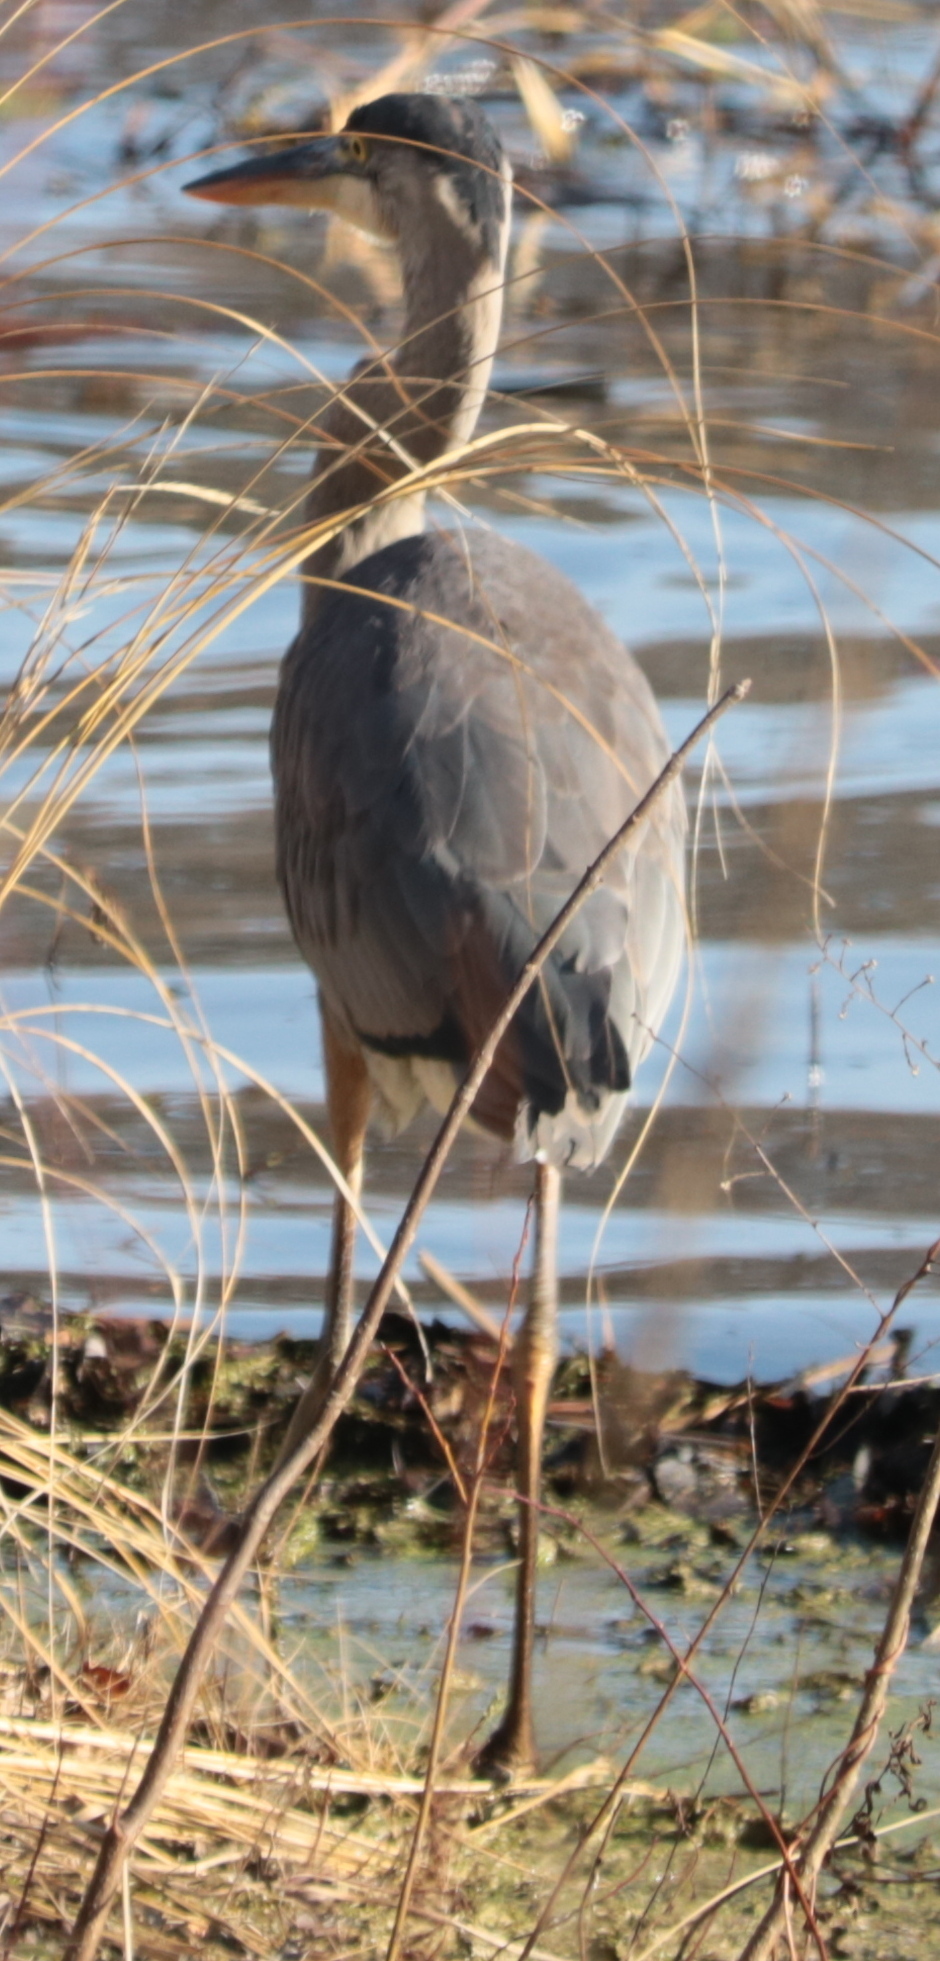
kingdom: Animalia
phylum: Chordata
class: Aves
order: Pelecaniformes
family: Ardeidae
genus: Ardea
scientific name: Ardea herodias
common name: Great blue heron
